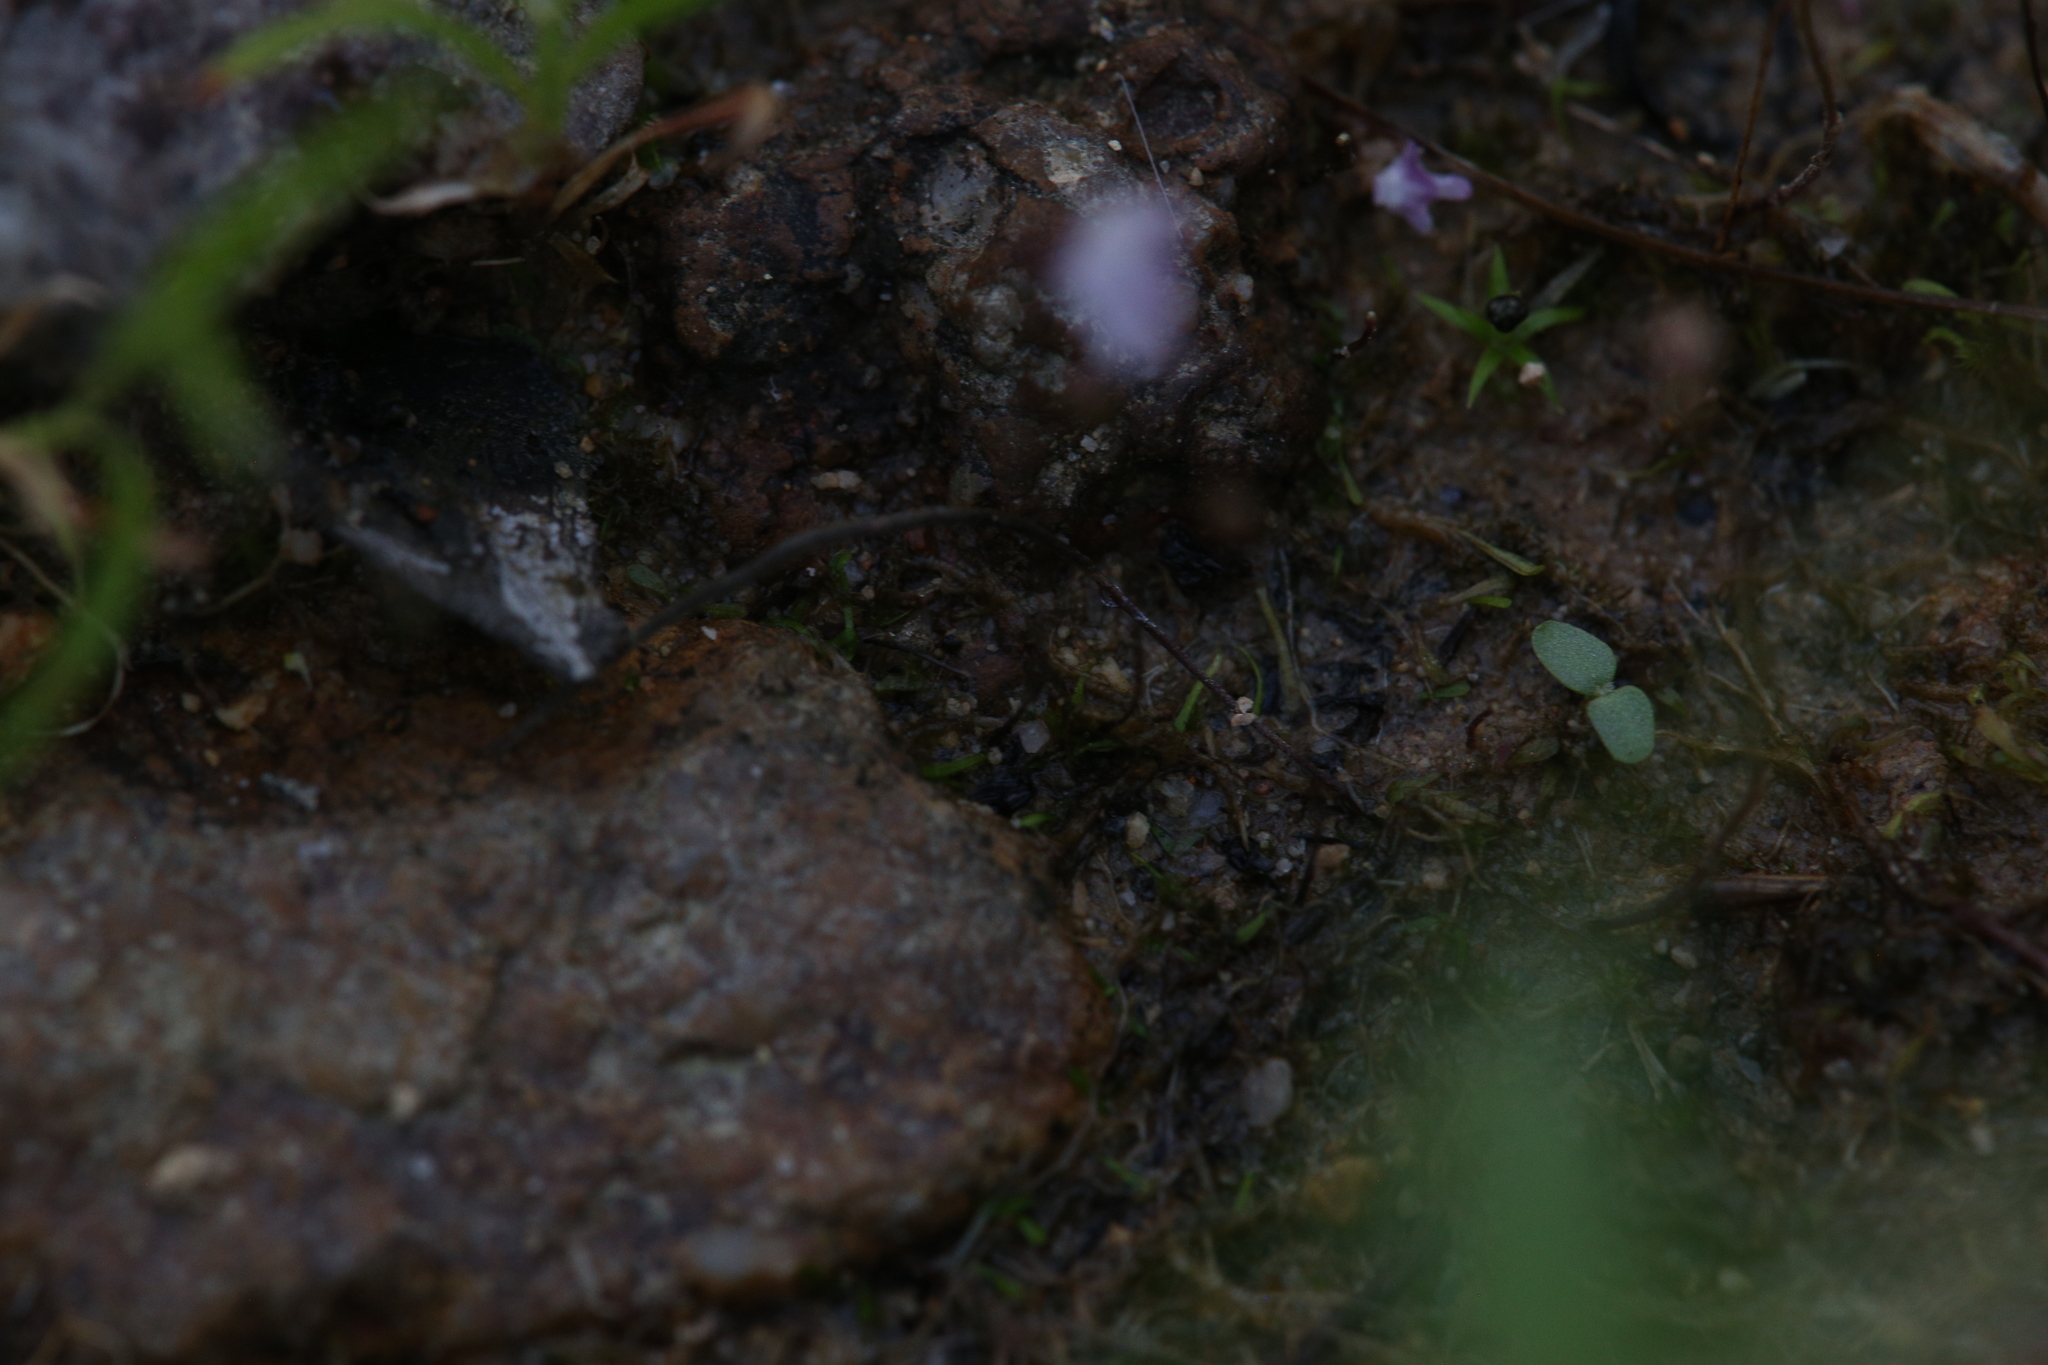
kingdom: Plantae
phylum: Tracheophyta
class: Magnoliopsida
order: Lamiales
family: Lentibulariaceae
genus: Utricularia
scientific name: Utricularia minutissima
